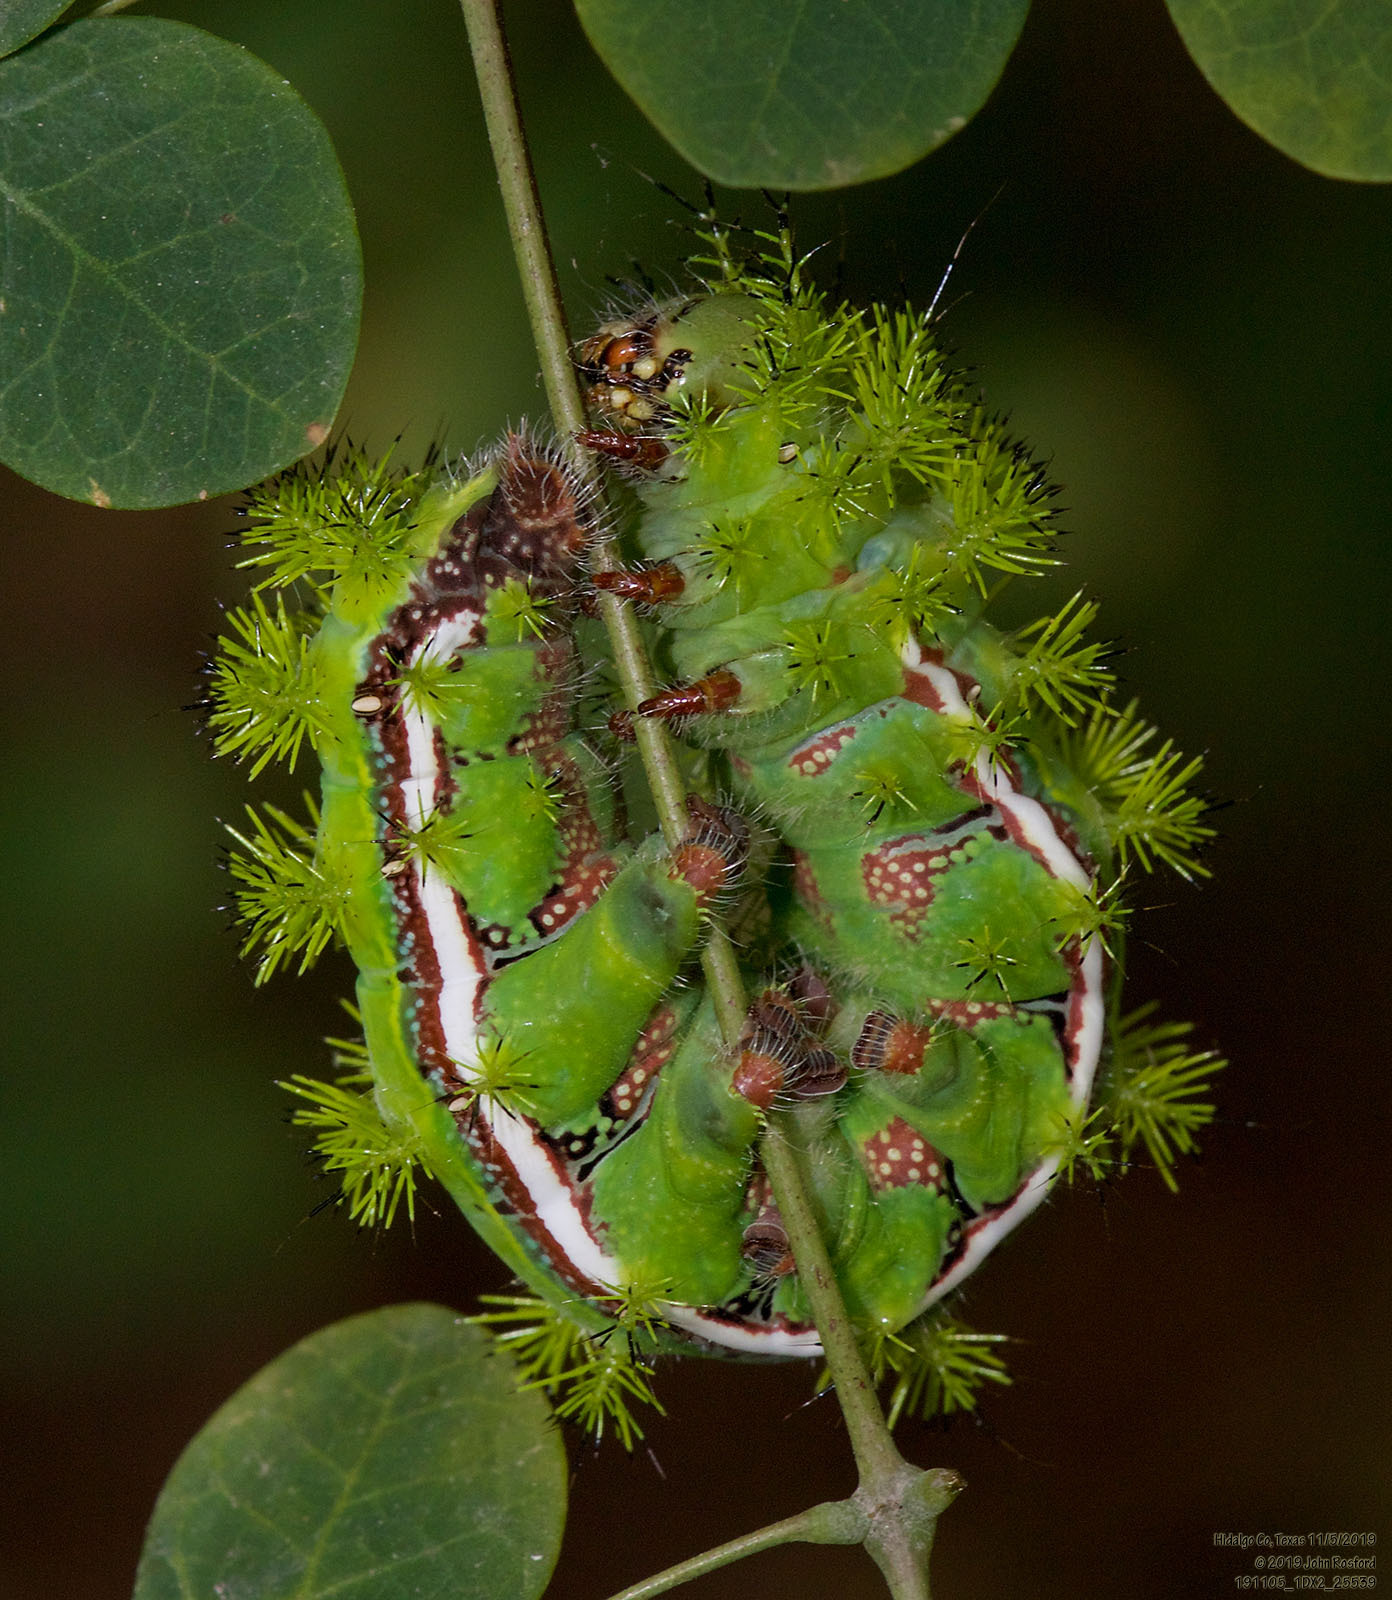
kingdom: Animalia
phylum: Arthropoda
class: Insecta
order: Lepidoptera
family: Saturniidae
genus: Automeris
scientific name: Automeris io
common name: Io moth
